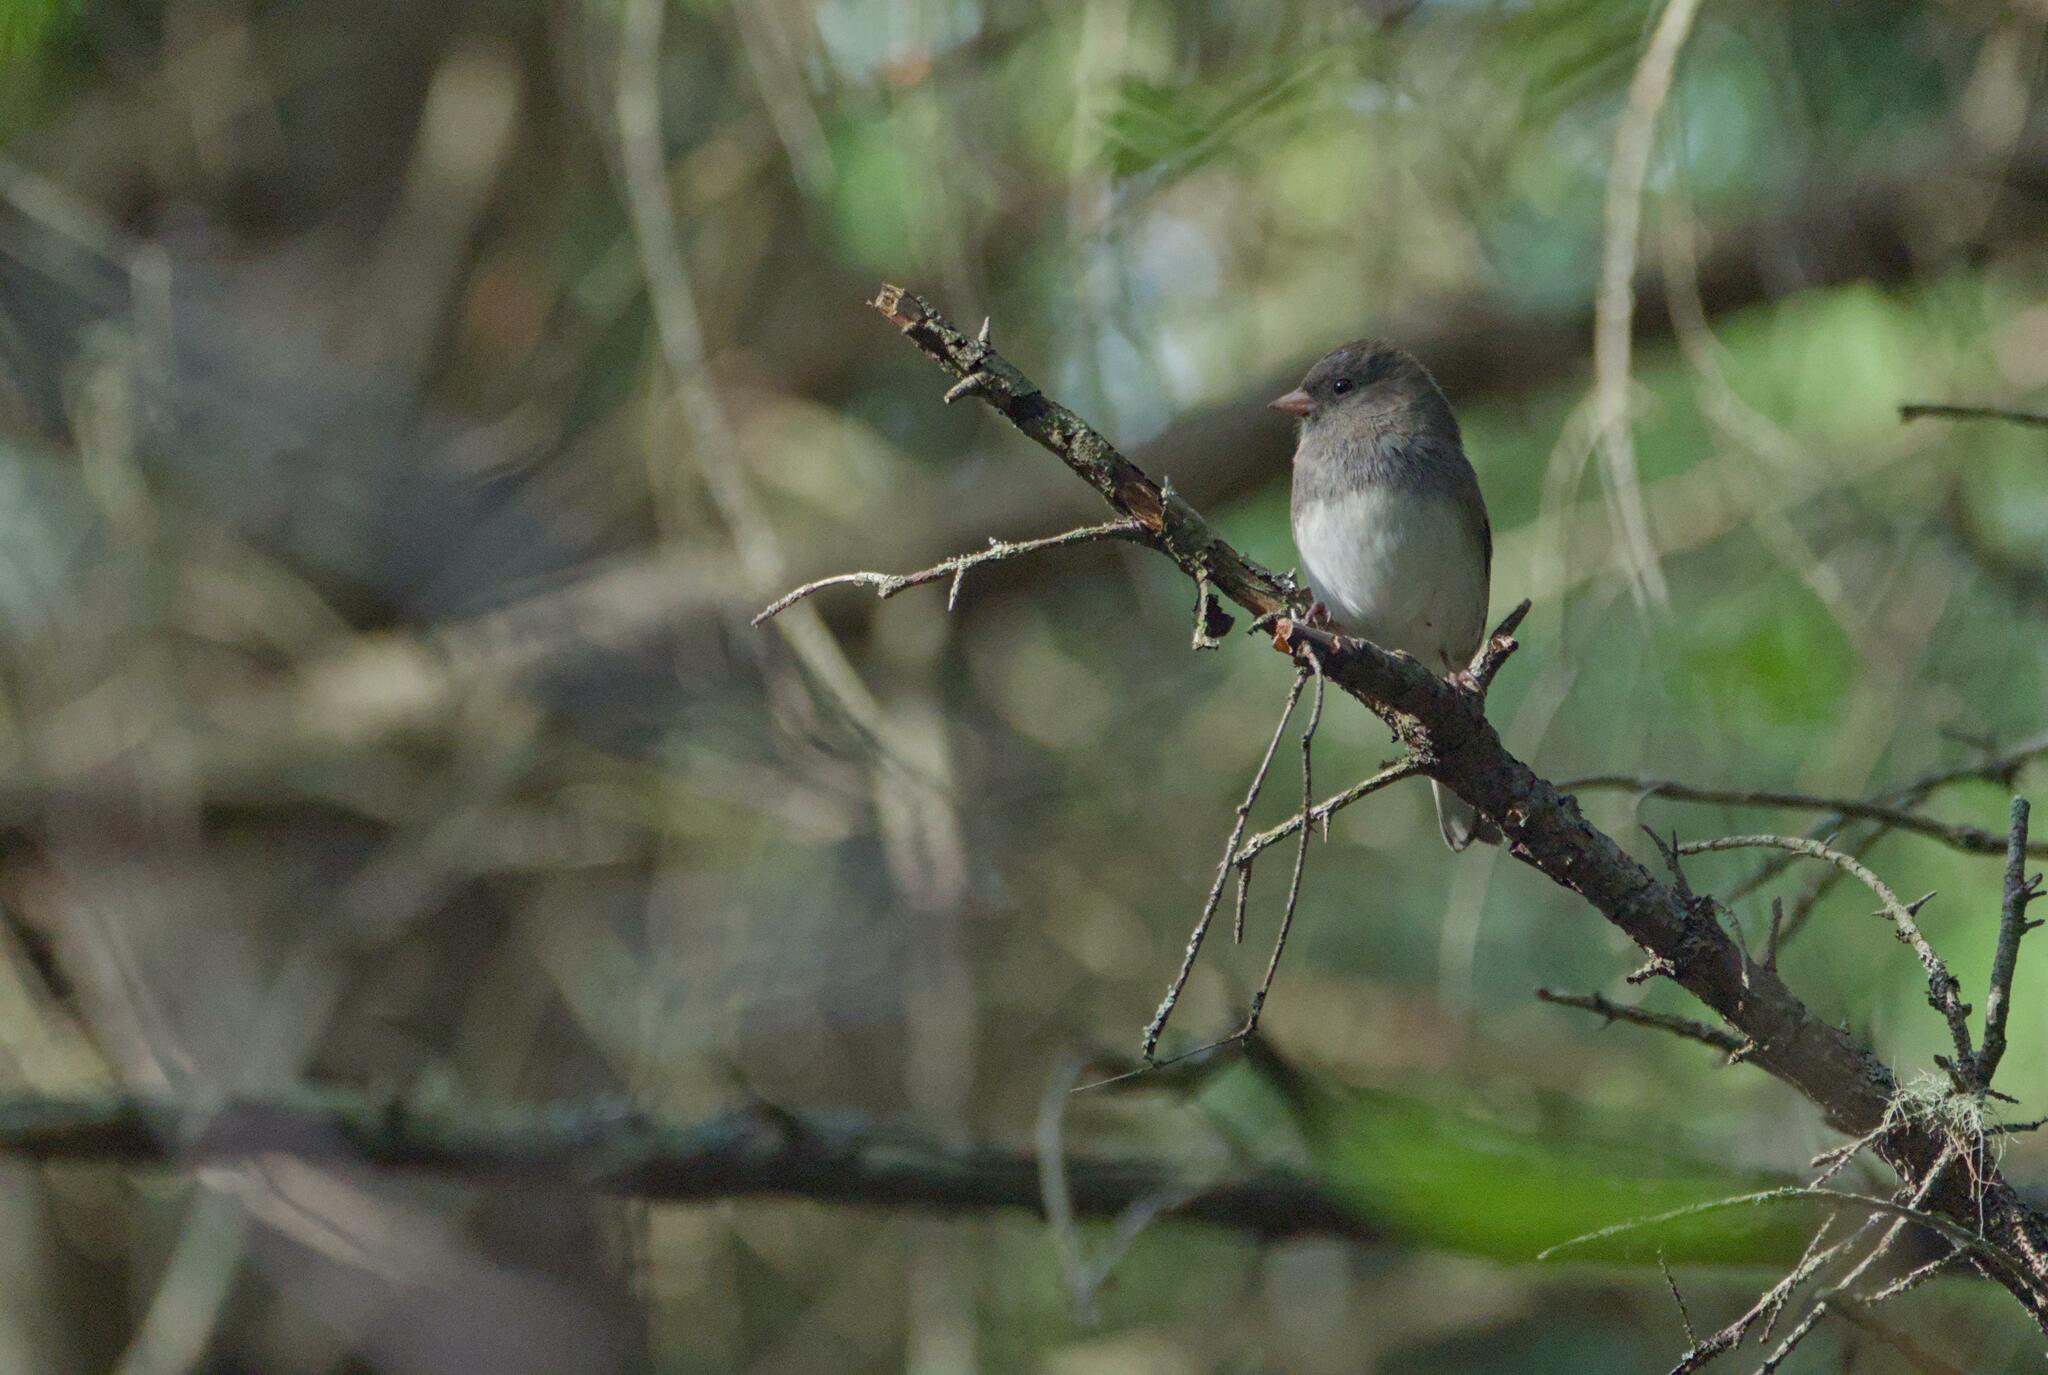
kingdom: Animalia
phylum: Chordata
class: Aves
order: Passeriformes
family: Passerellidae
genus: Junco
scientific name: Junco hyemalis
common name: Dark-eyed junco
